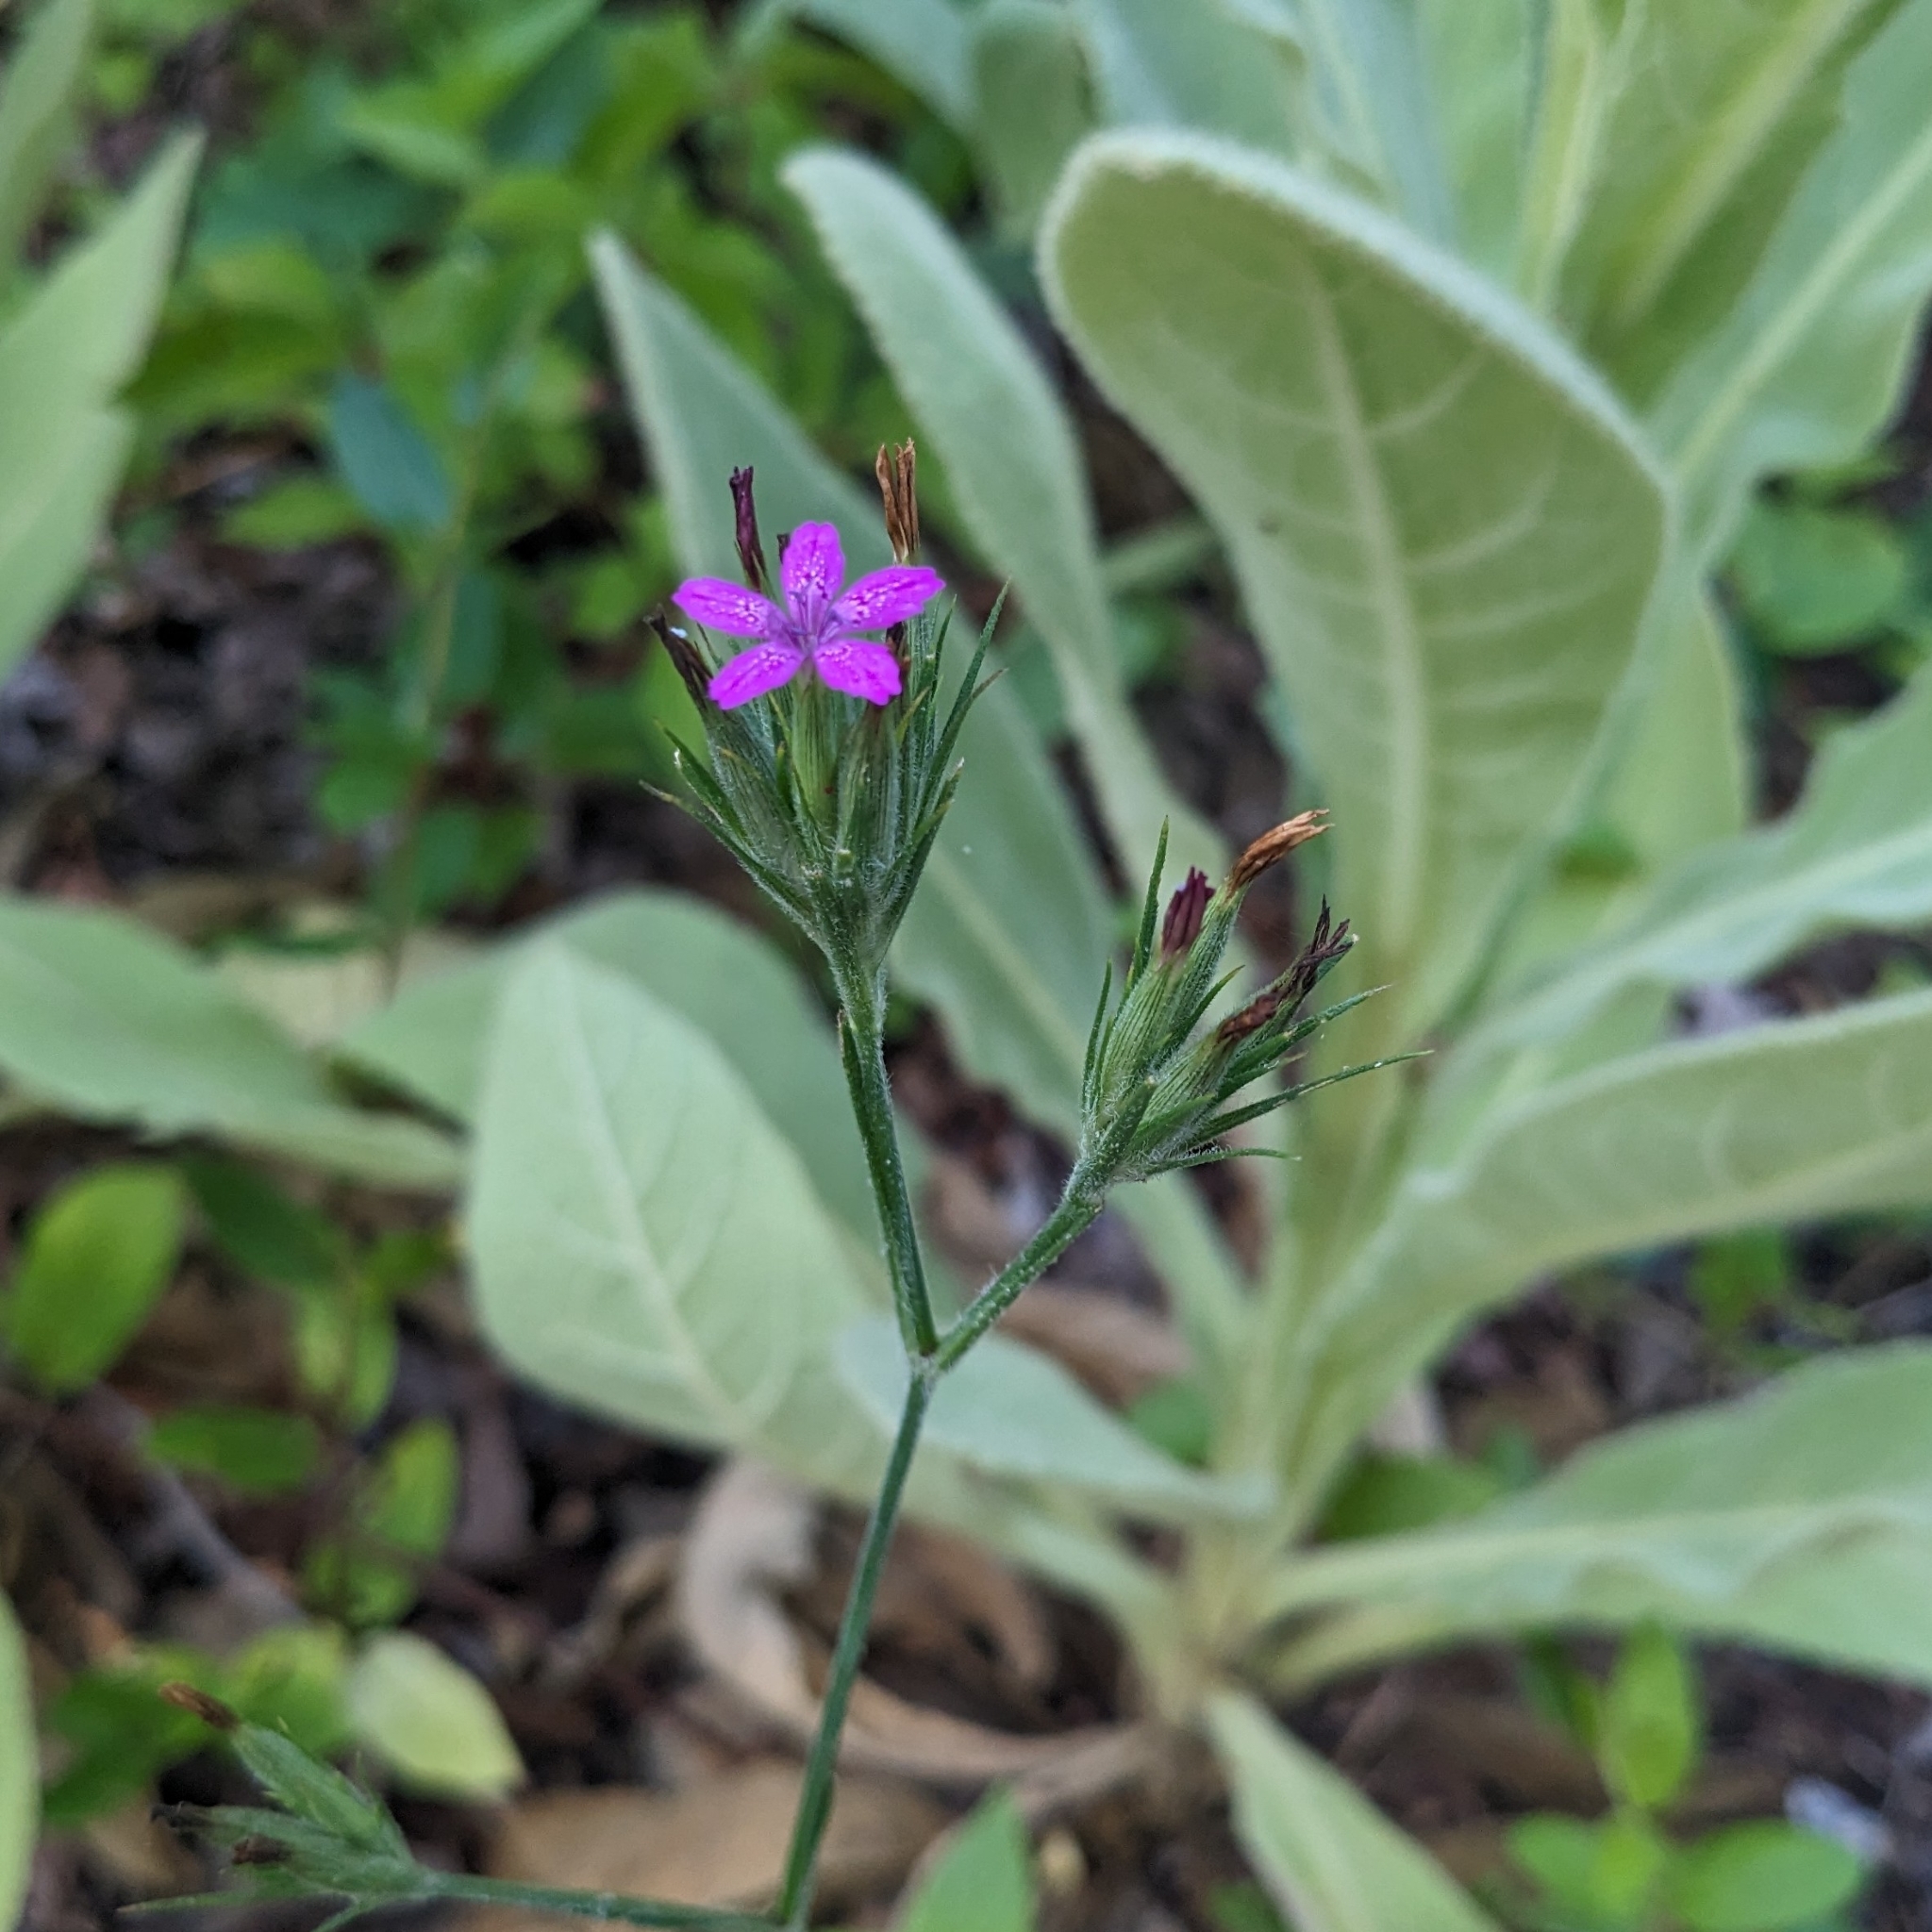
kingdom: Plantae
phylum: Tracheophyta
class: Magnoliopsida
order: Caryophyllales
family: Caryophyllaceae
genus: Dianthus
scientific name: Dianthus armeria
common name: Deptford pink
